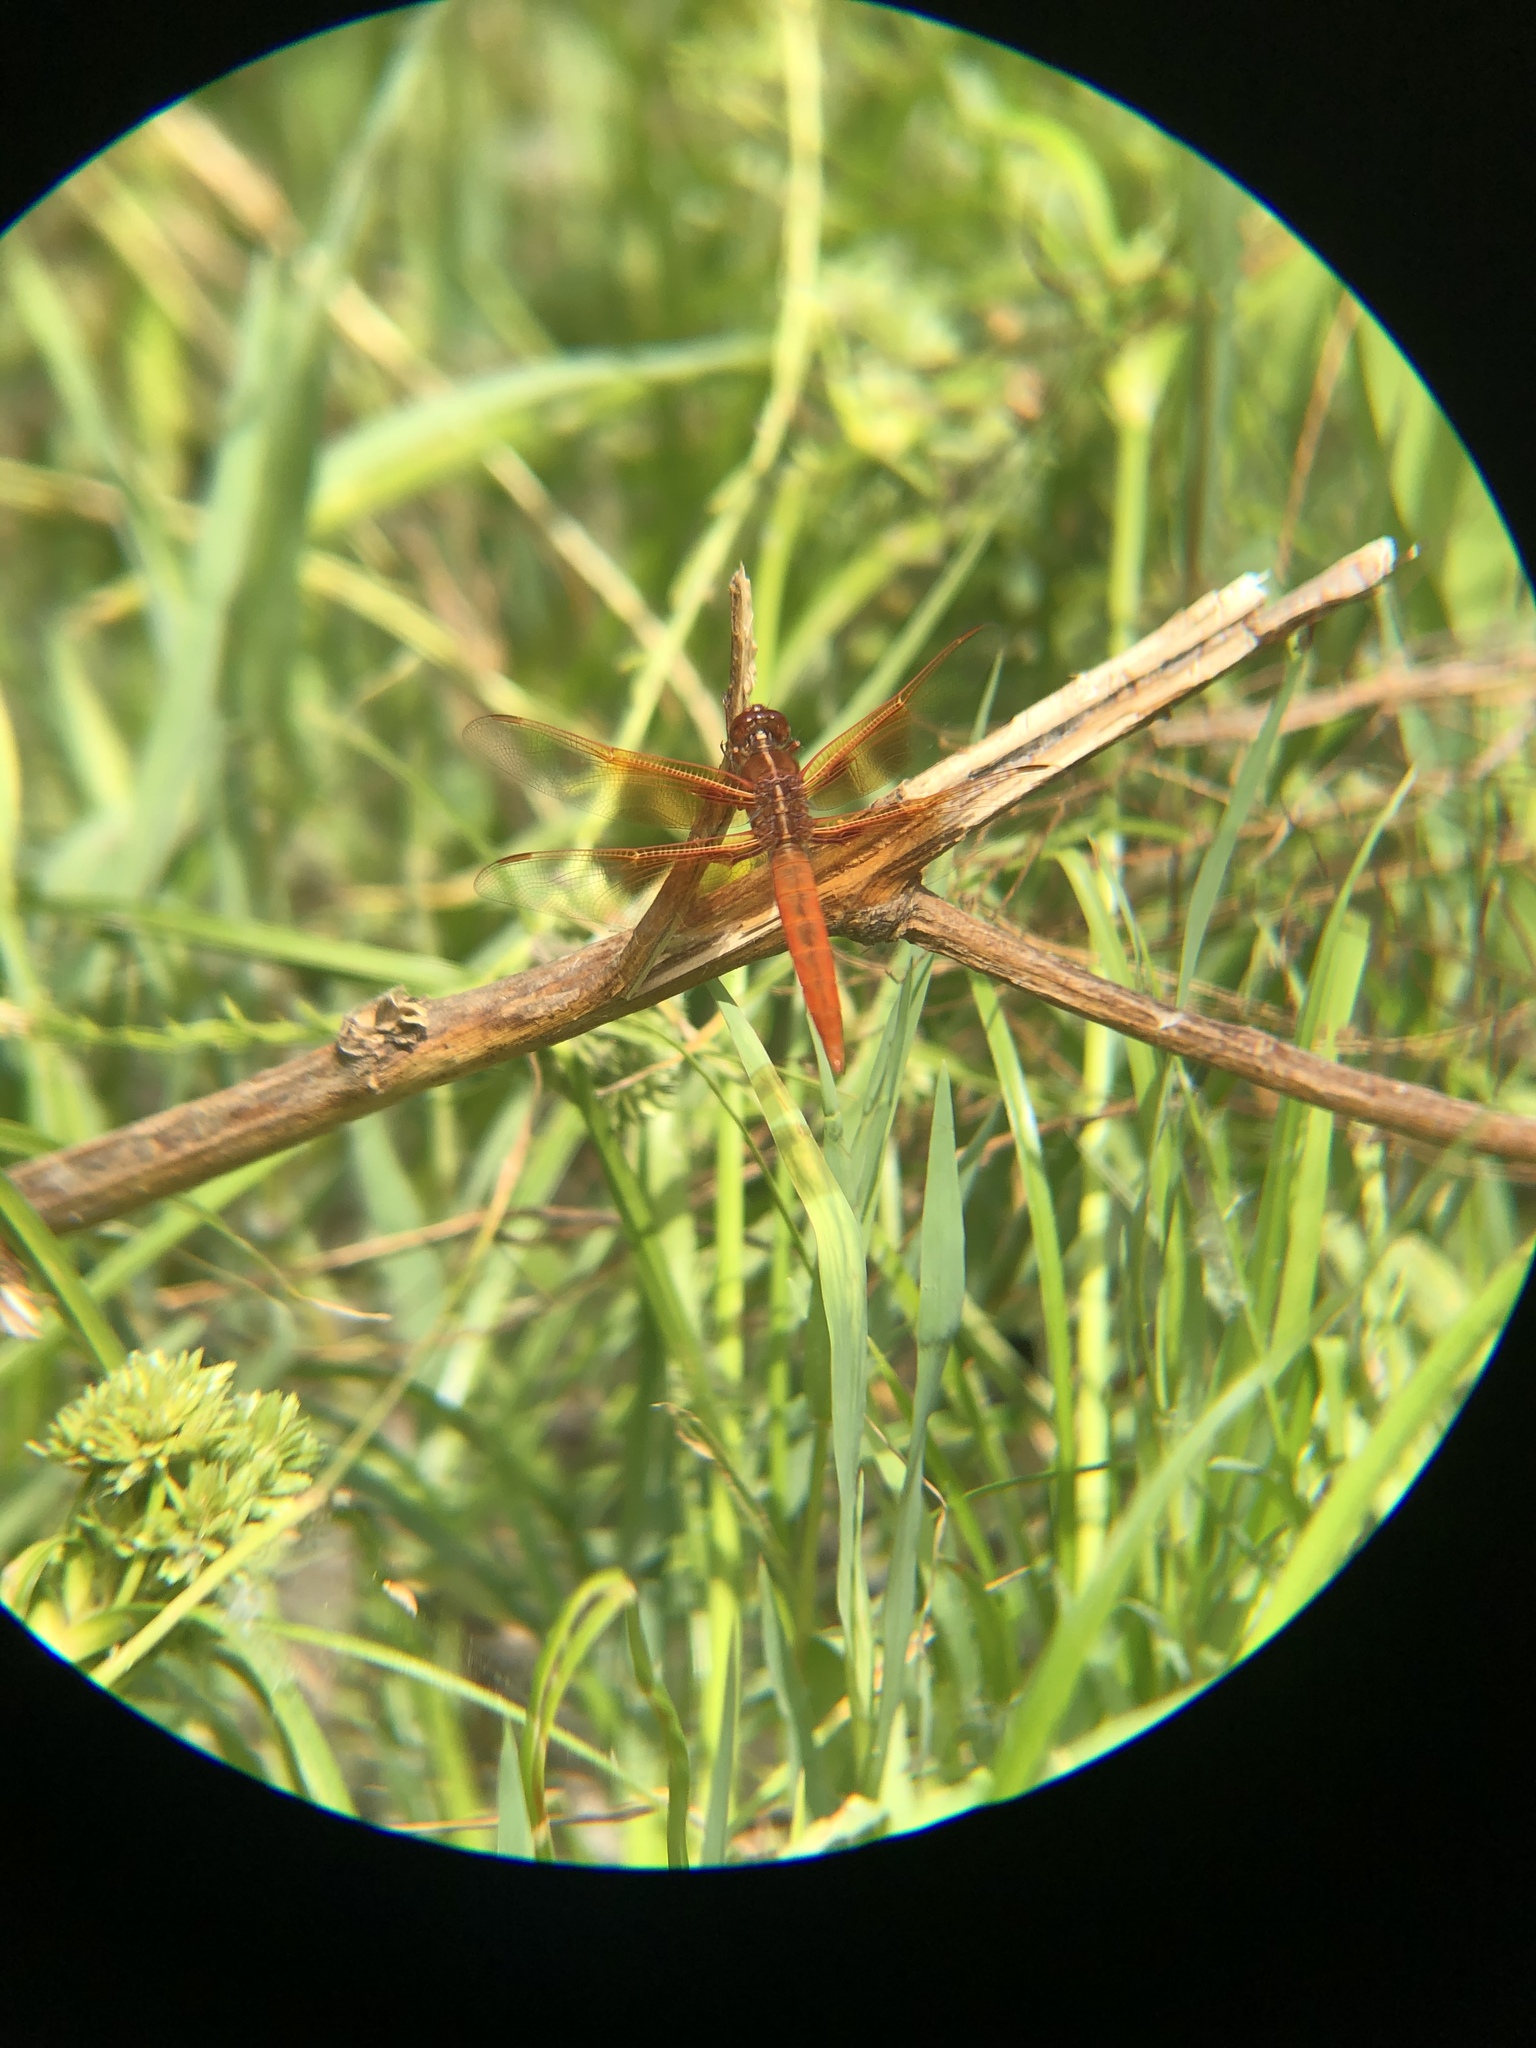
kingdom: Animalia
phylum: Arthropoda
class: Insecta
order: Odonata
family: Libellulidae
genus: Libellula
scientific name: Libellula saturata
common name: Flame skimmer
